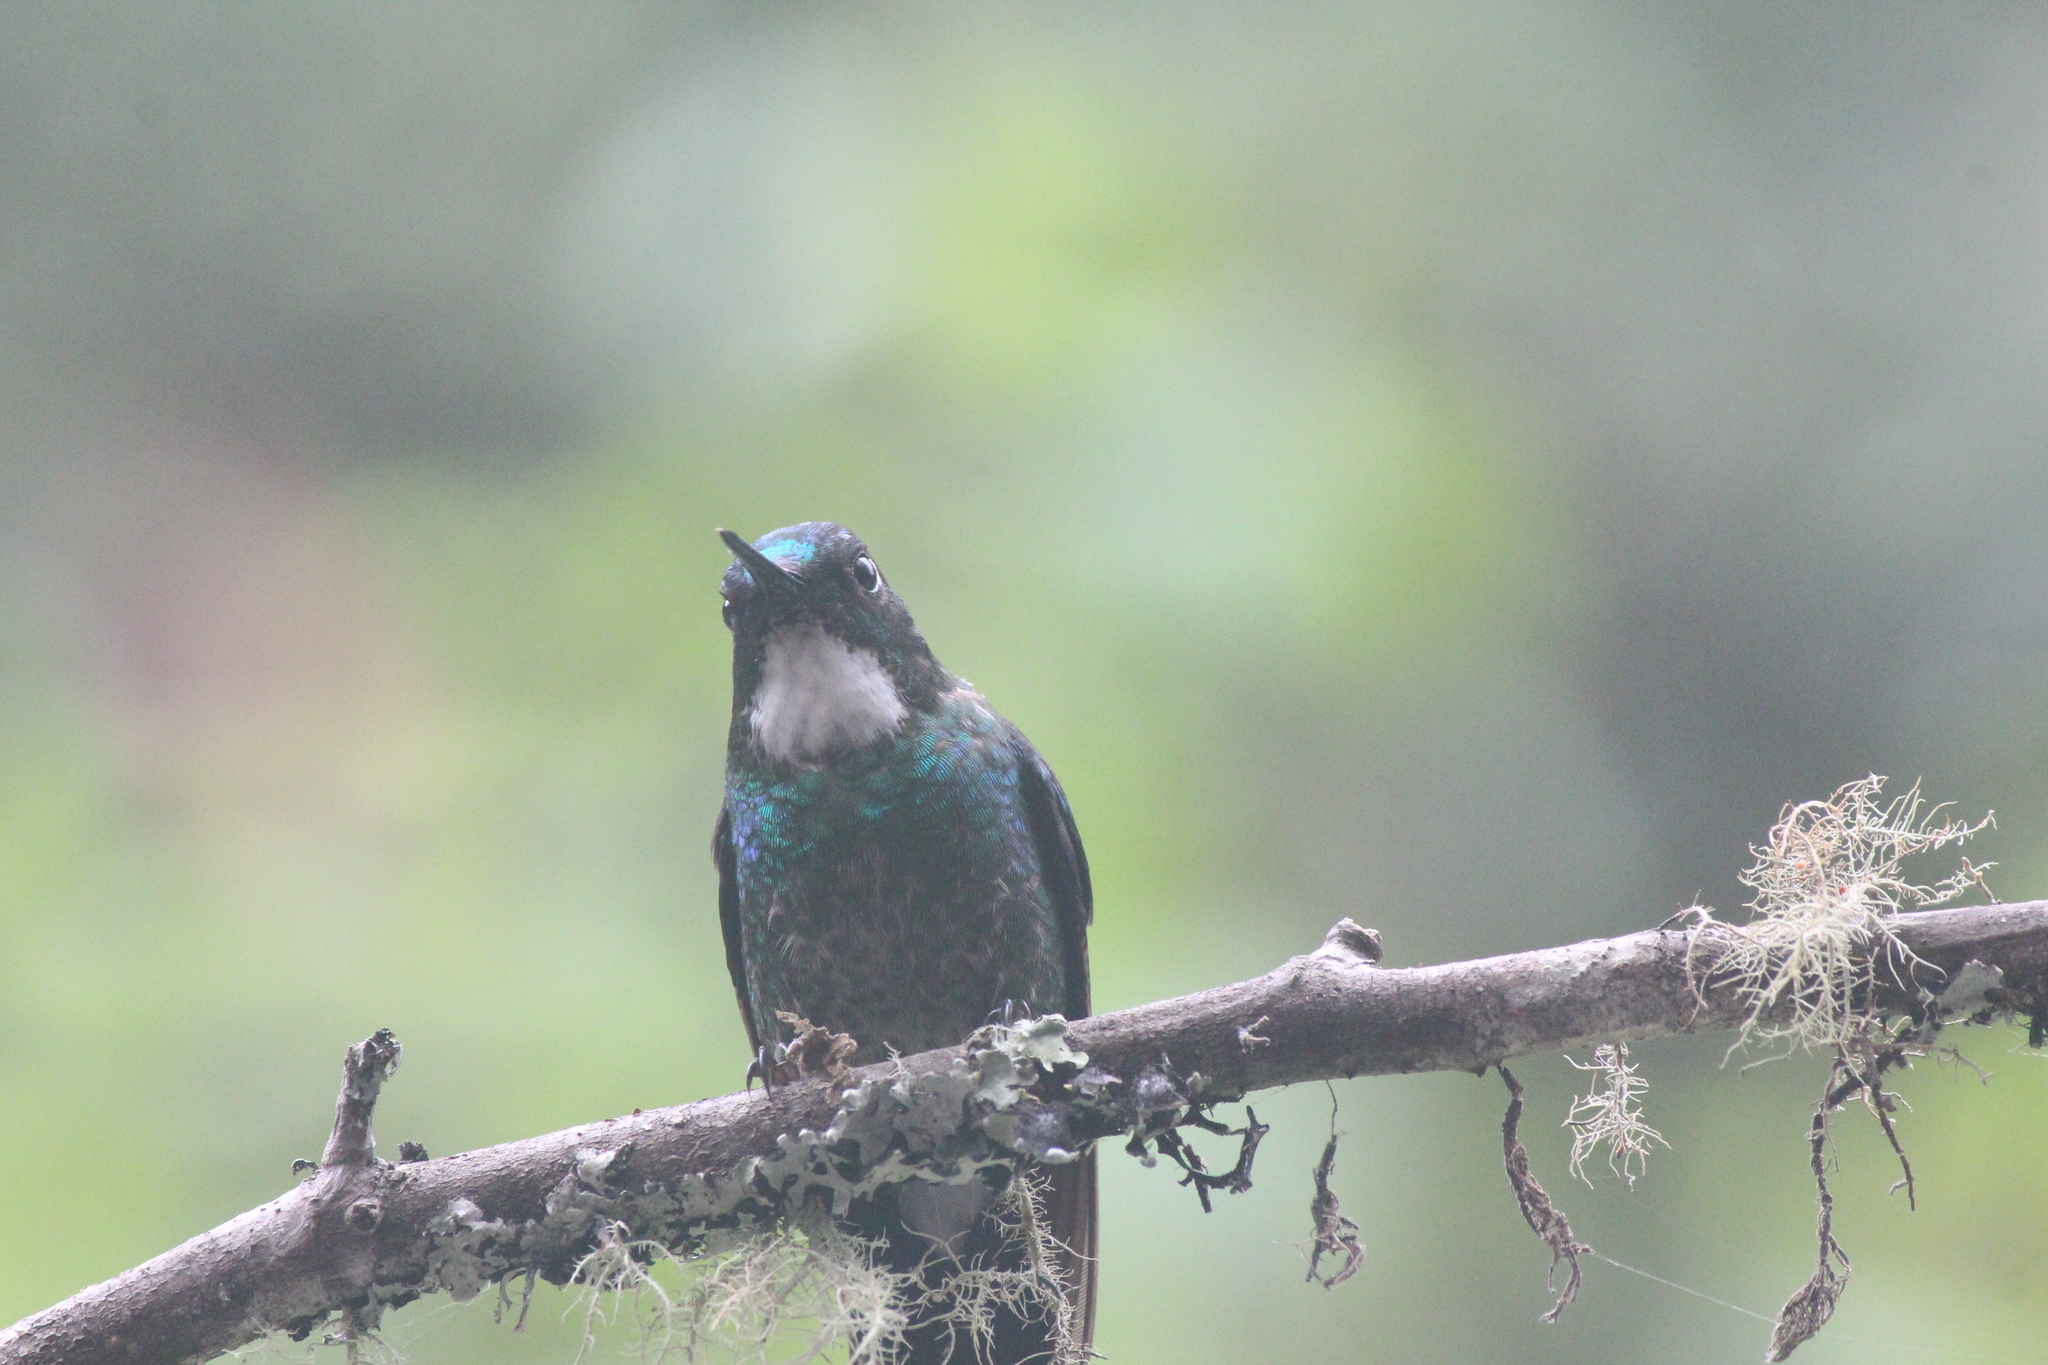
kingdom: Animalia
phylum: Chordata
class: Aves
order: Apodiformes
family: Trochilidae
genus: Heliangelus
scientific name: Heliangelus exortis
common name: Tourmaline sunangel
